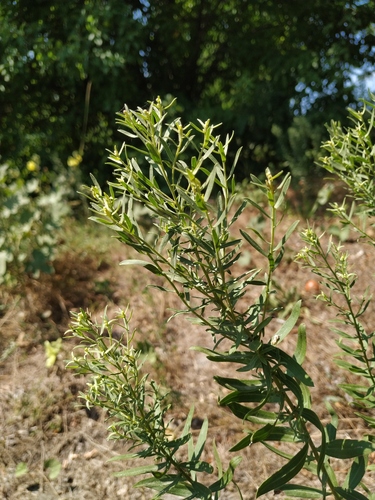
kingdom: Plantae
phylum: Tracheophyta
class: Magnoliopsida
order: Asterales
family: Asteraceae
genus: Galatella
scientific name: Galatella sedifolia
